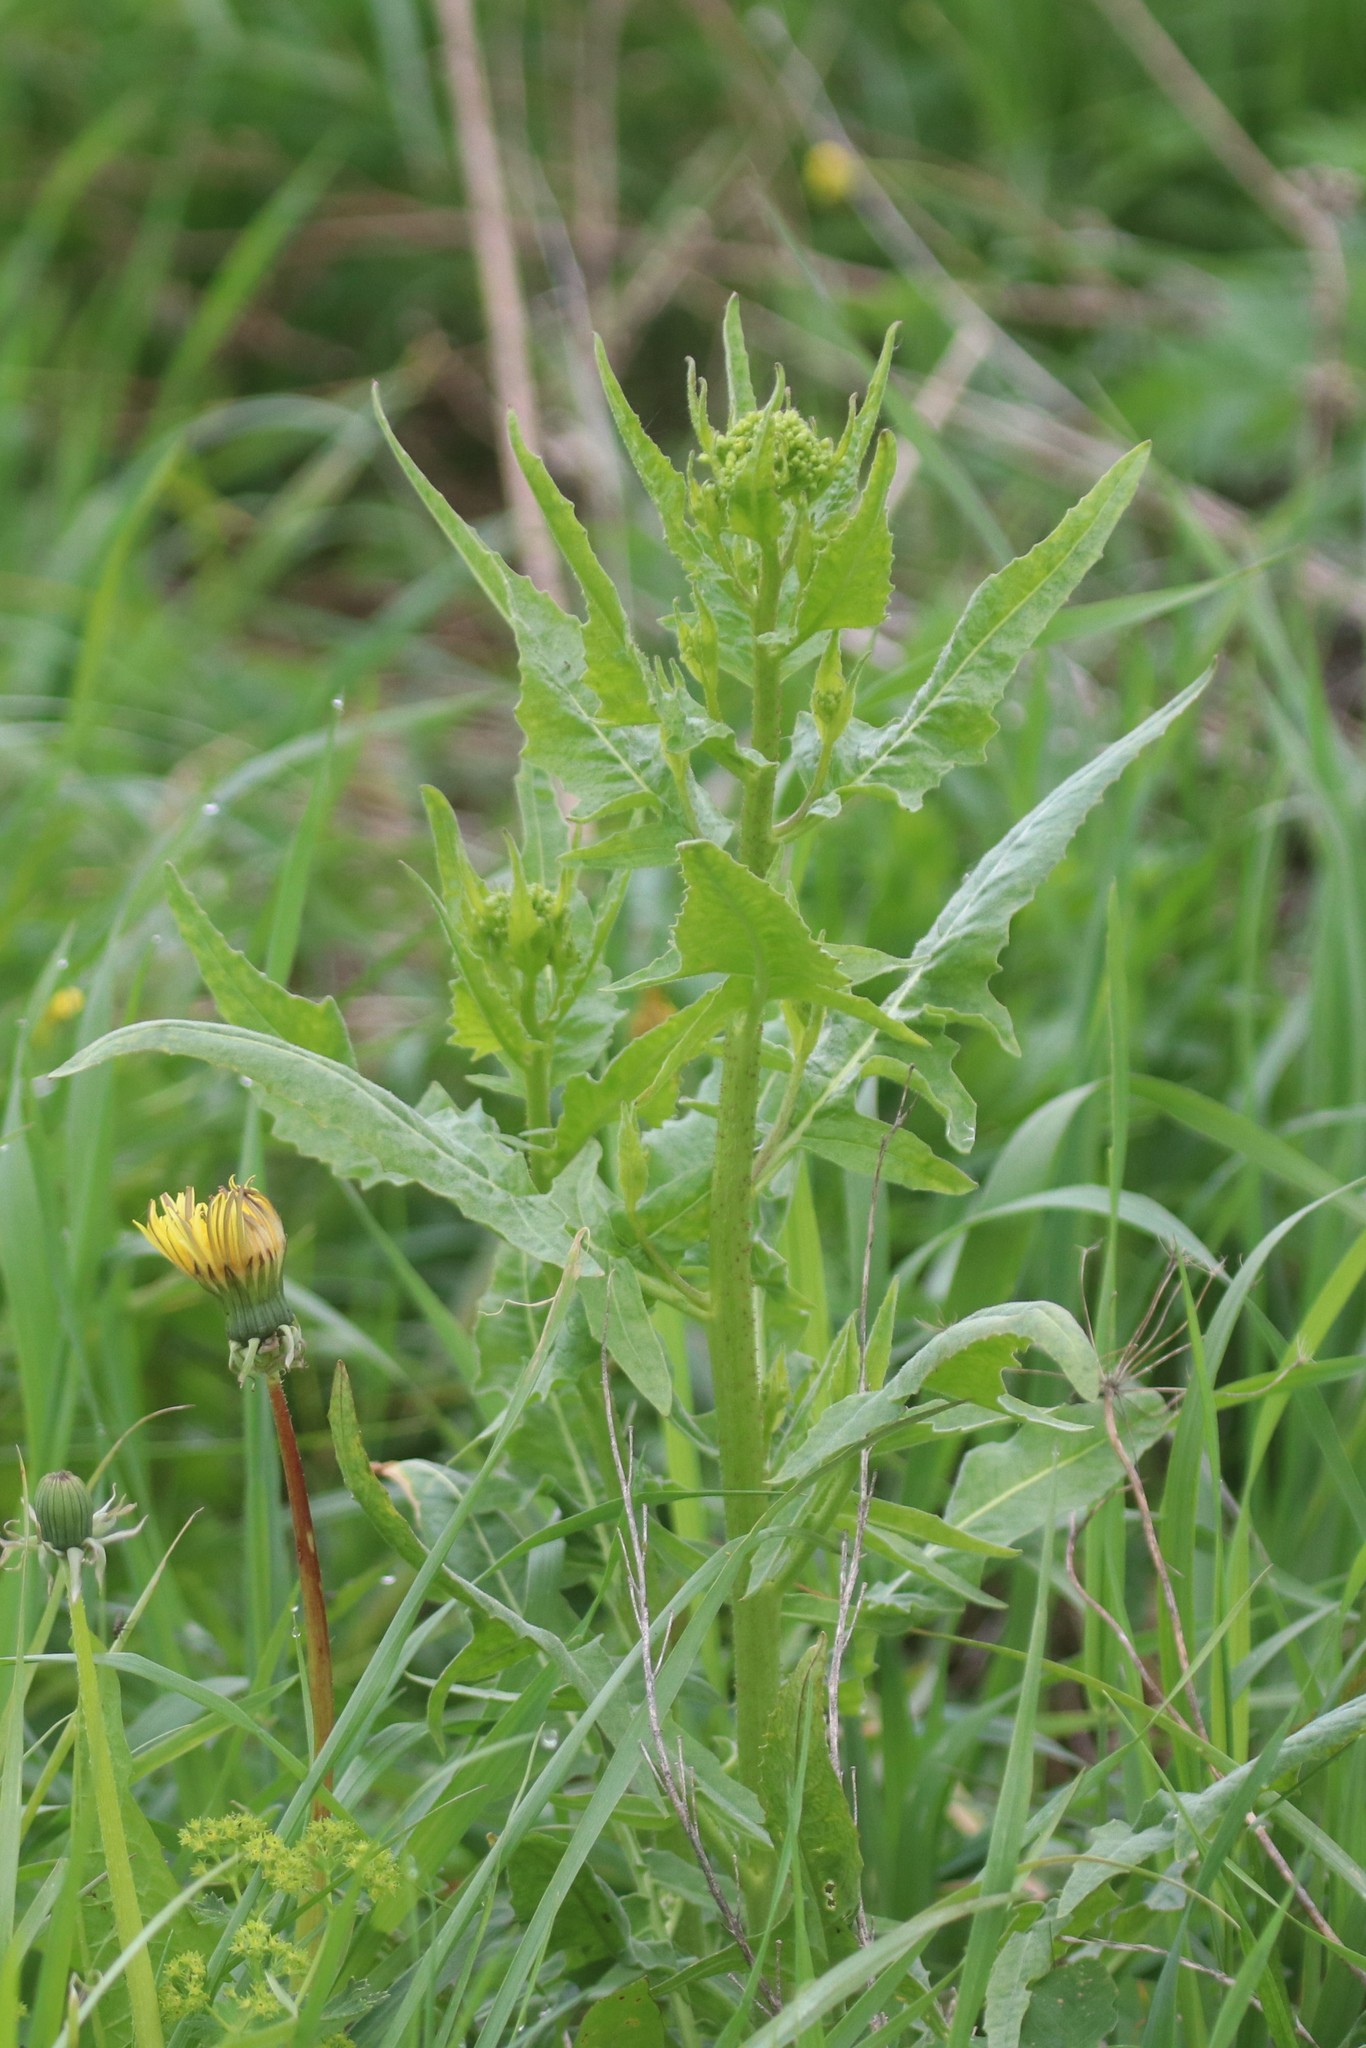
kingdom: Plantae
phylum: Tracheophyta
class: Magnoliopsida
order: Brassicales
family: Brassicaceae
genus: Bunias
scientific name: Bunias orientalis
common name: Warty-cabbage
